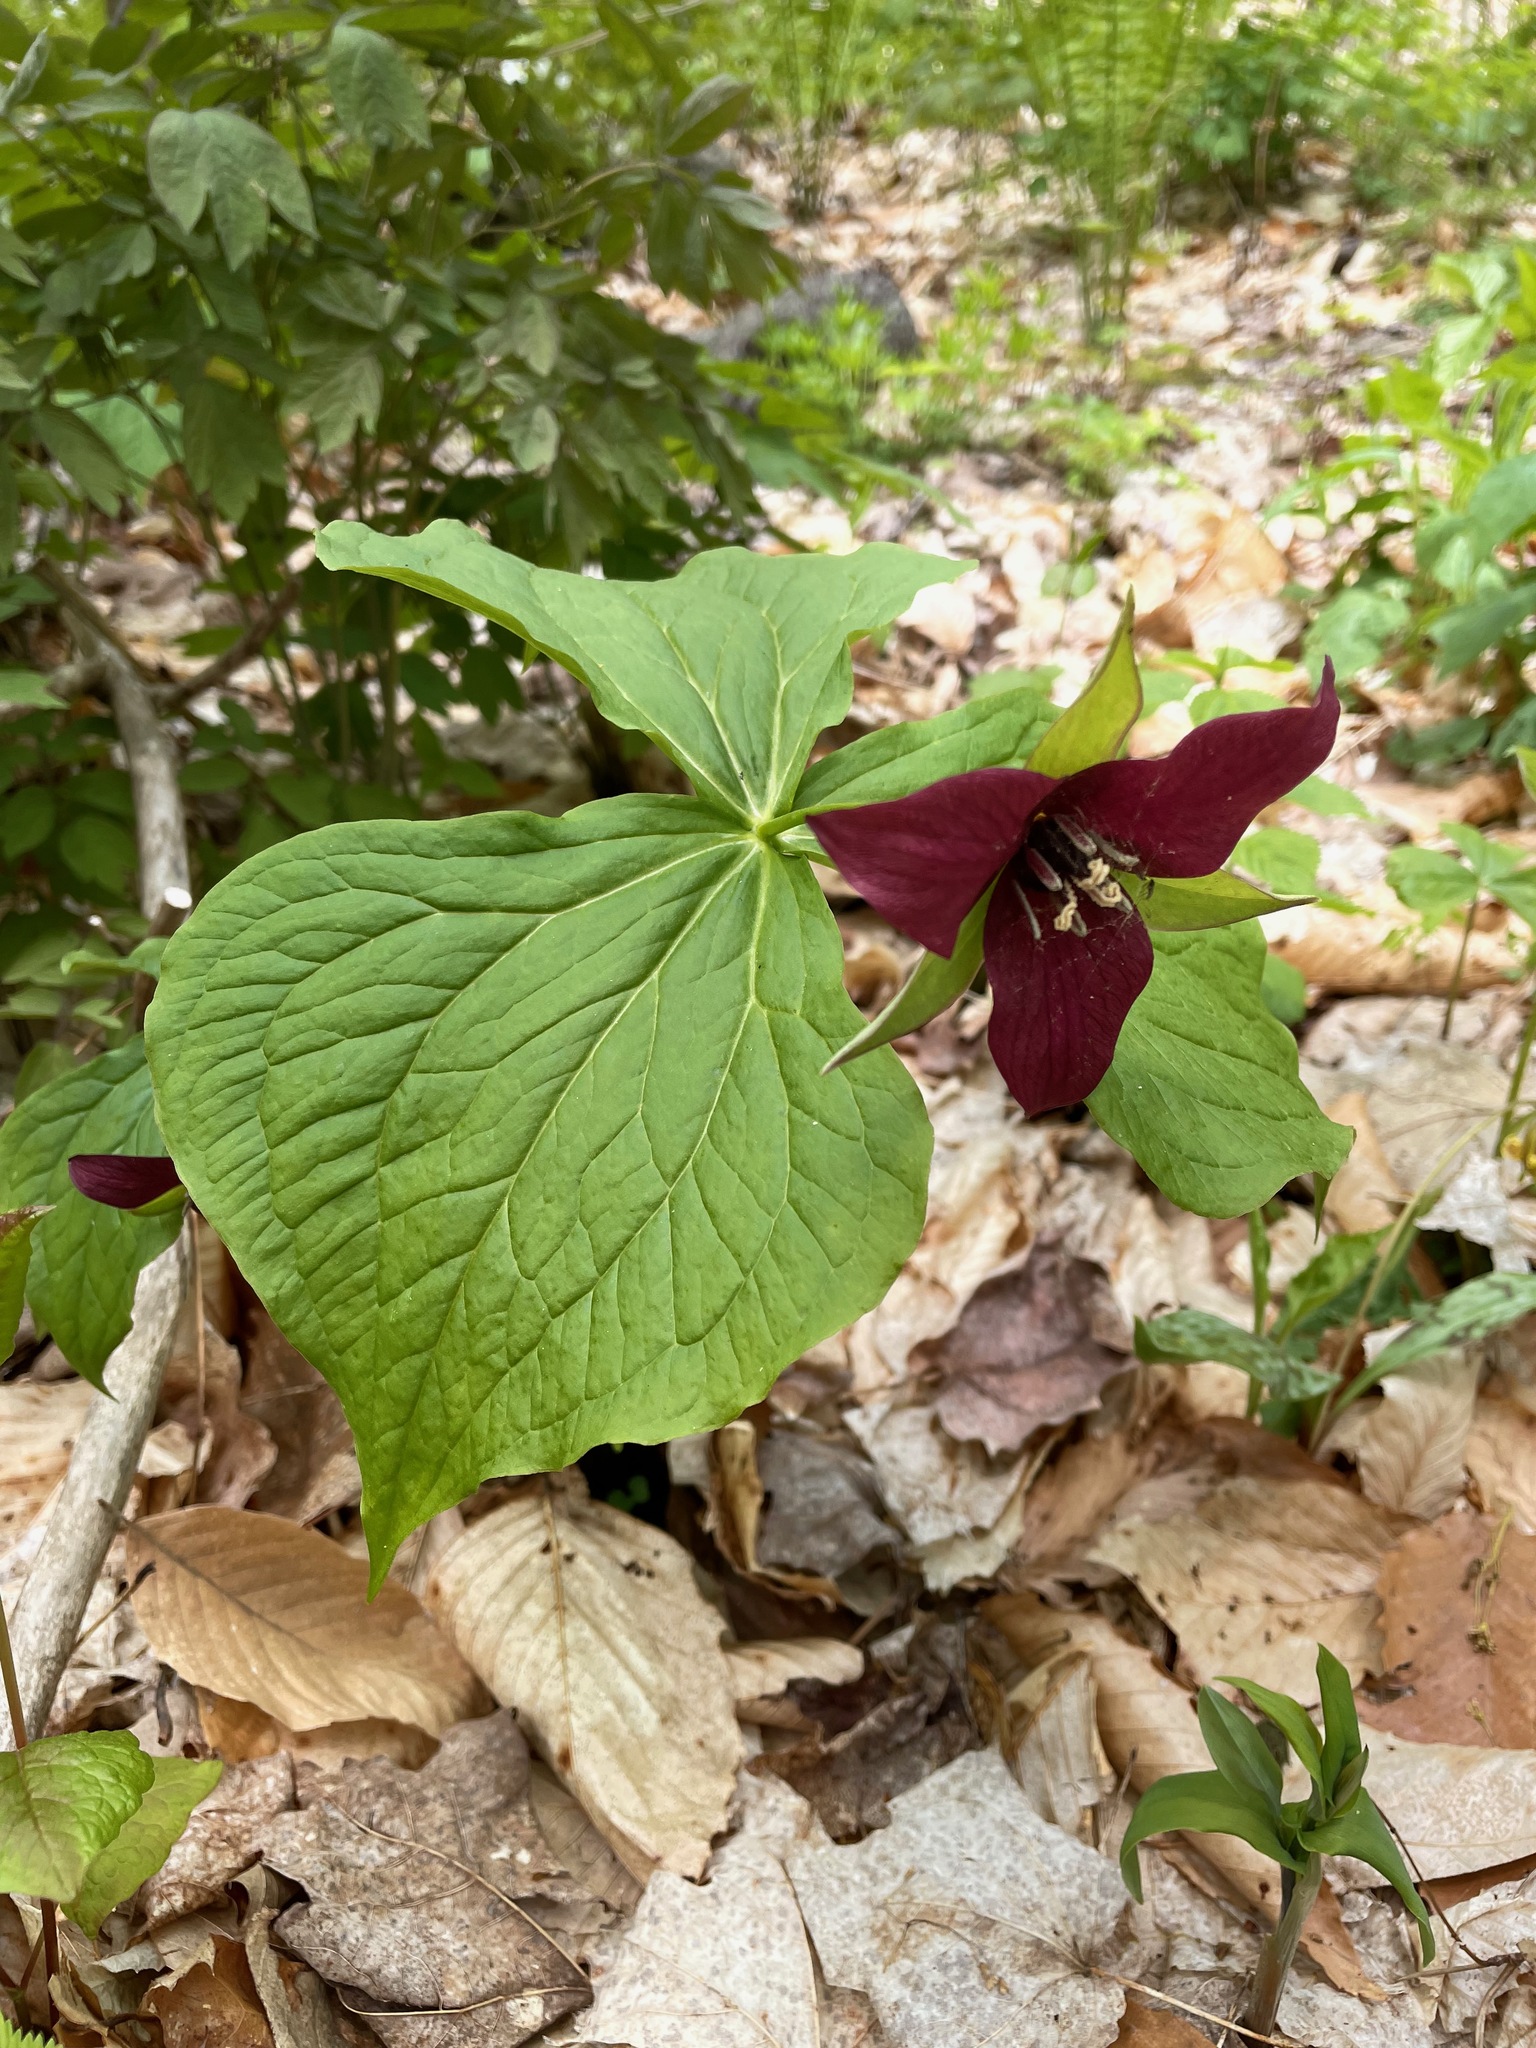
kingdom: Plantae
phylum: Tracheophyta
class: Liliopsida
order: Liliales
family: Melanthiaceae
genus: Trillium
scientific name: Trillium erectum
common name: Purple trillium
